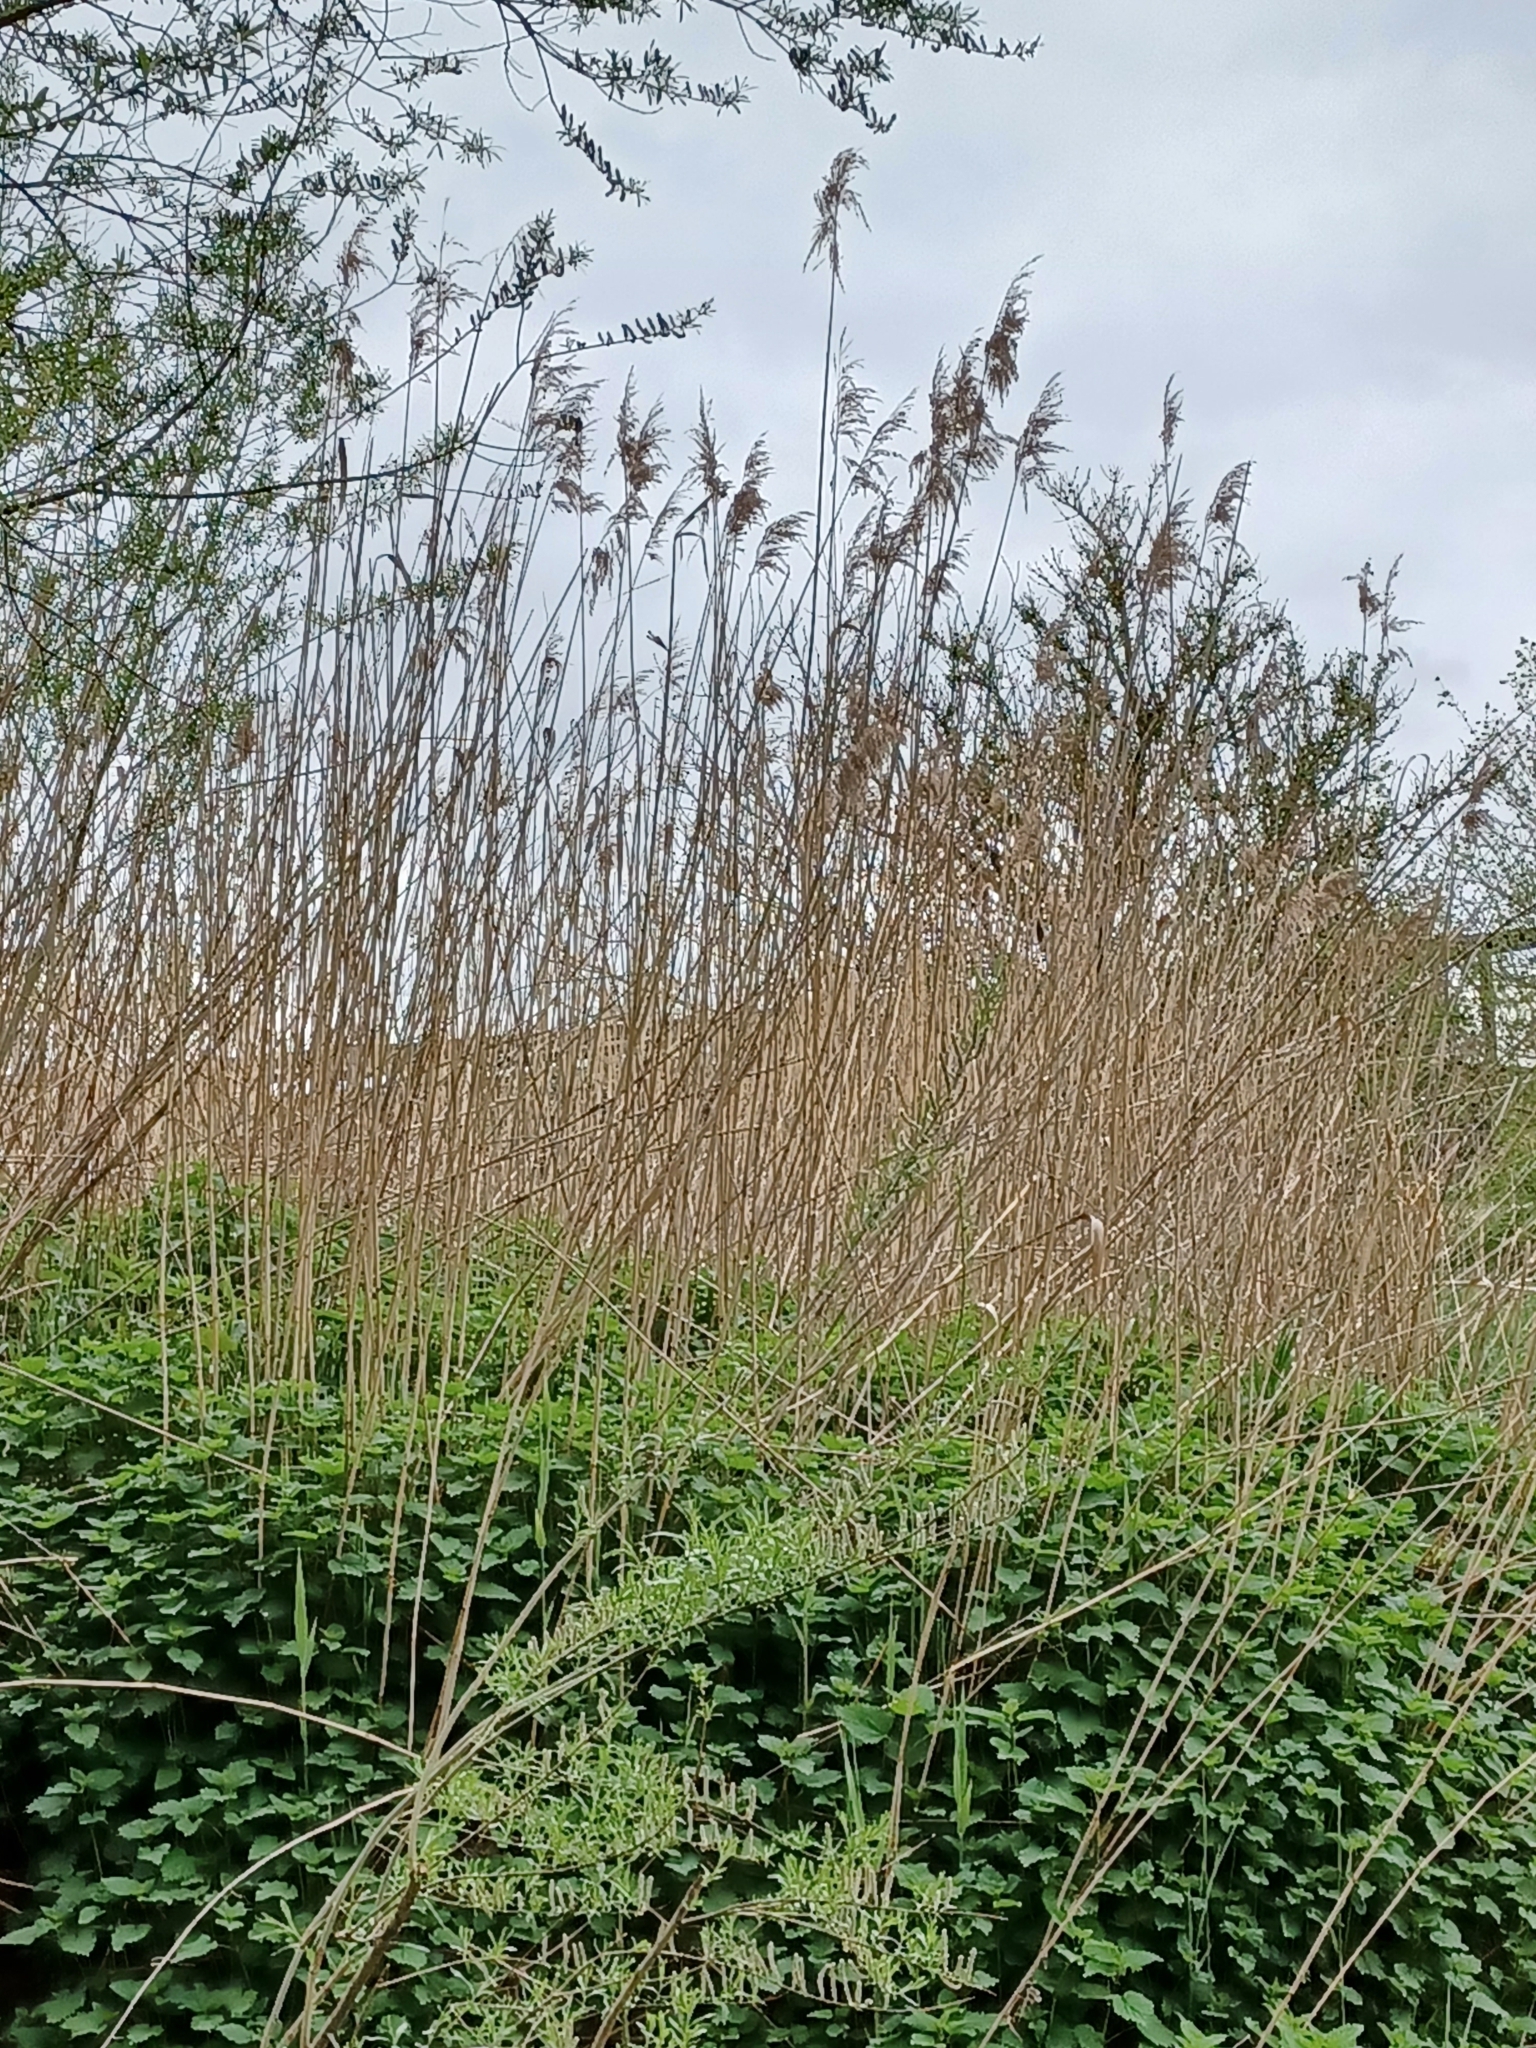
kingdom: Plantae
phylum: Tracheophyta
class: Liliopsida
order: Poales
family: Poaceae
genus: Phragmites
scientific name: Phragmites australis
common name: Common reed
